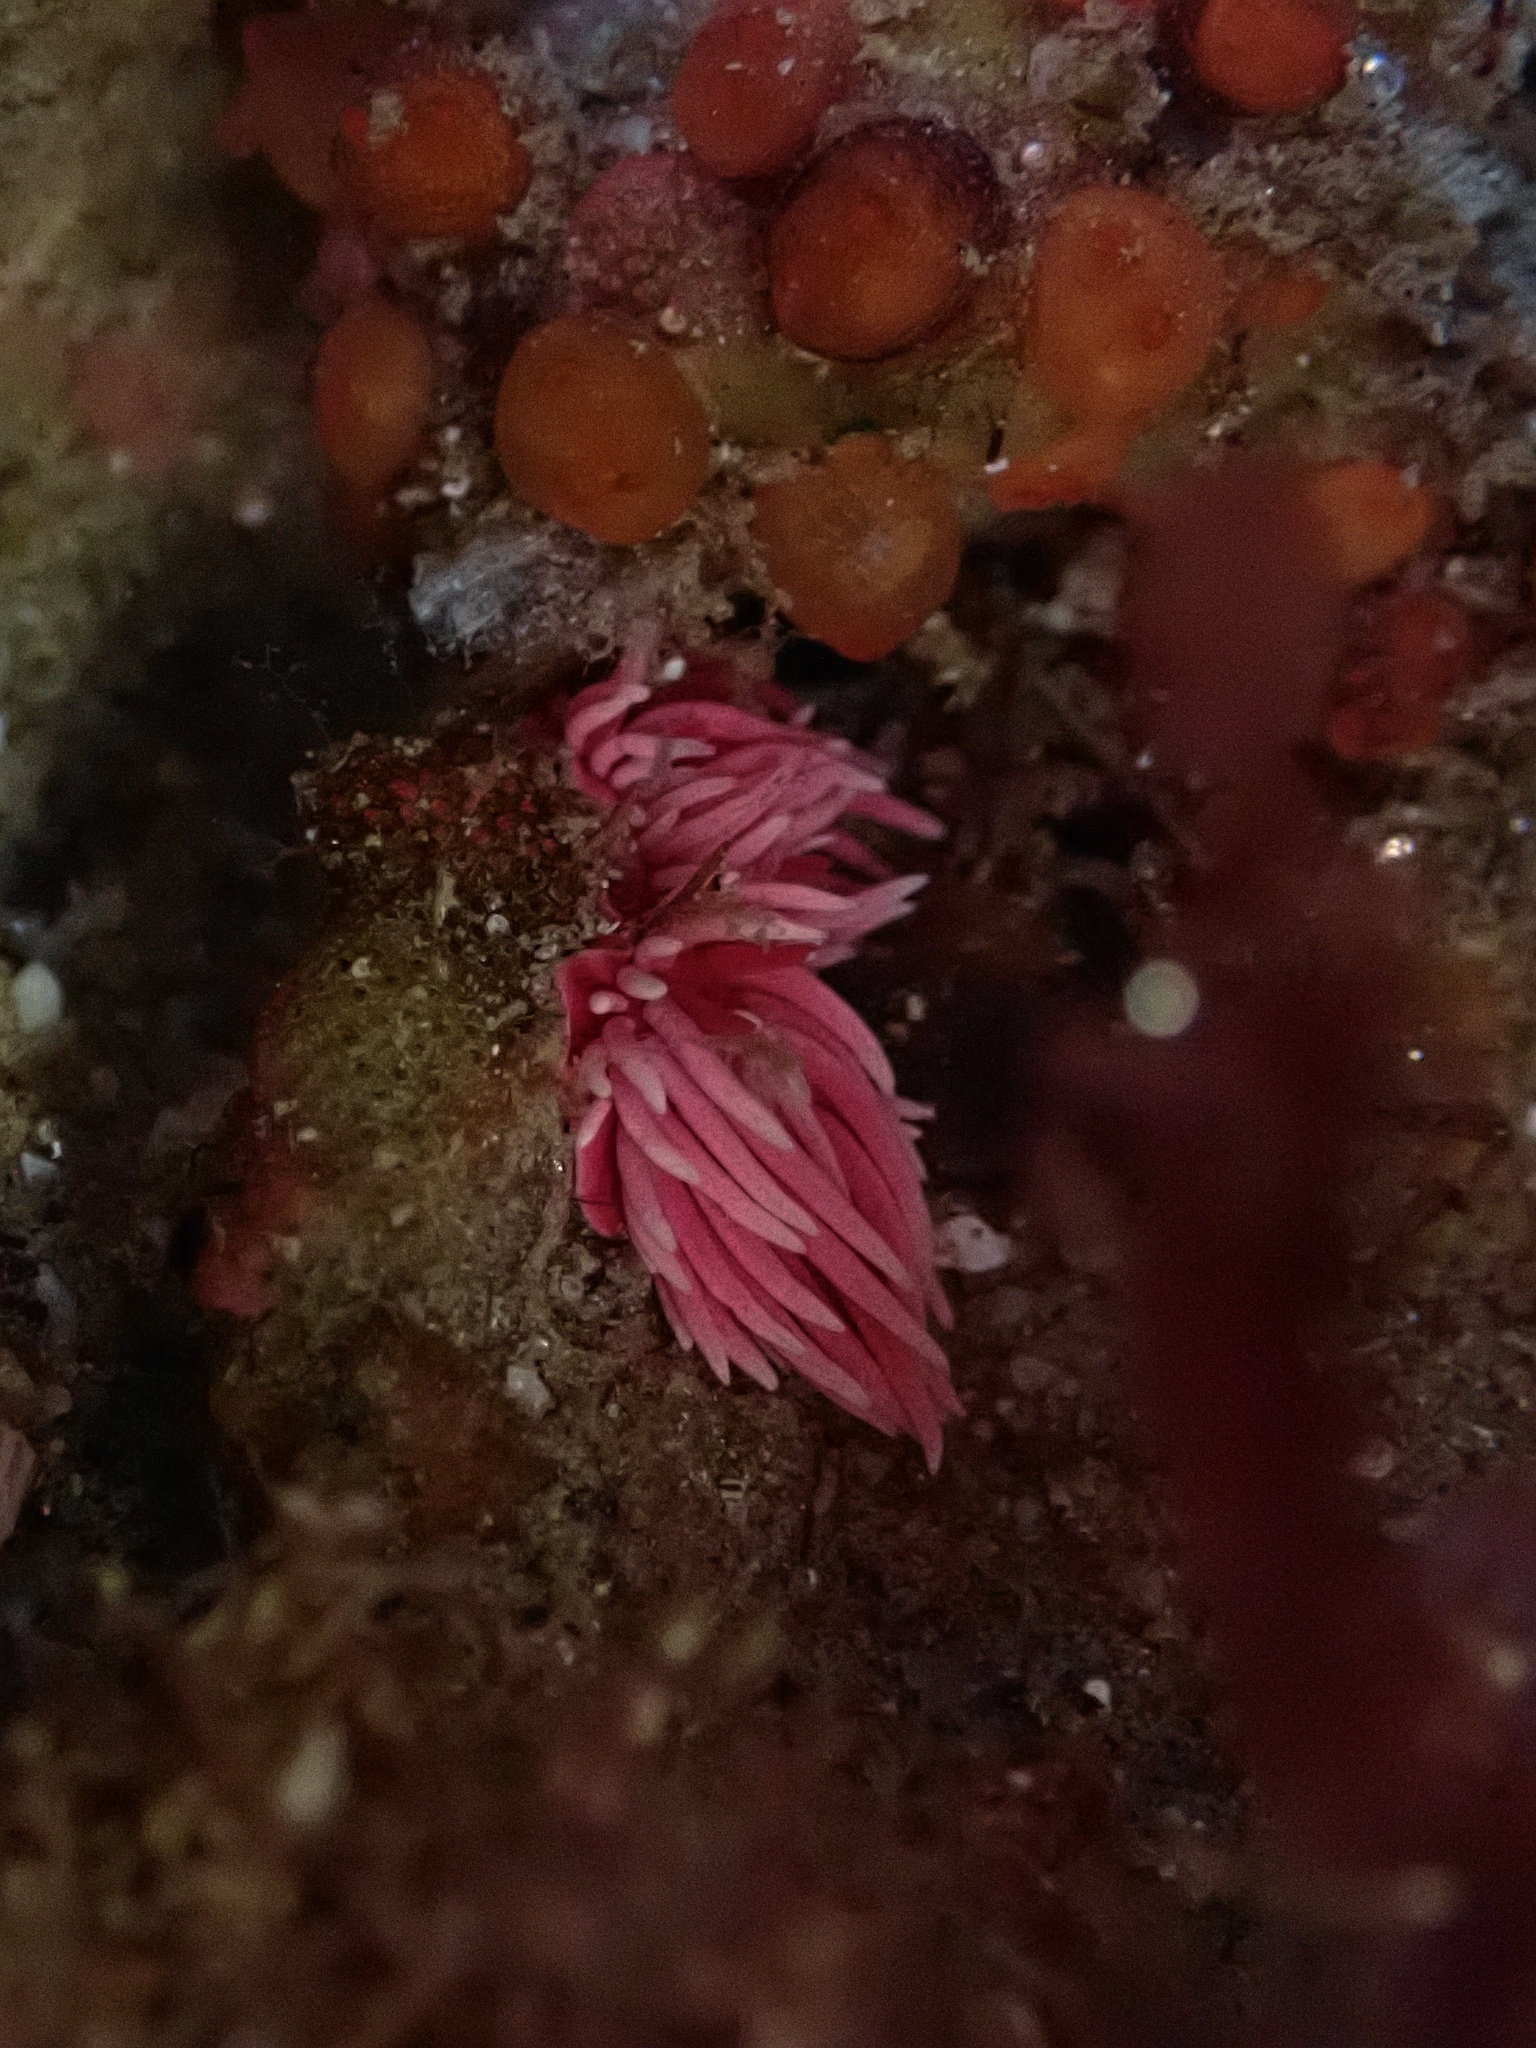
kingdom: Animalia
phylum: Mollusca
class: Gastropoda
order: Nudibranchia
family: Goniodorididae
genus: Okenia
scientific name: Okenia
